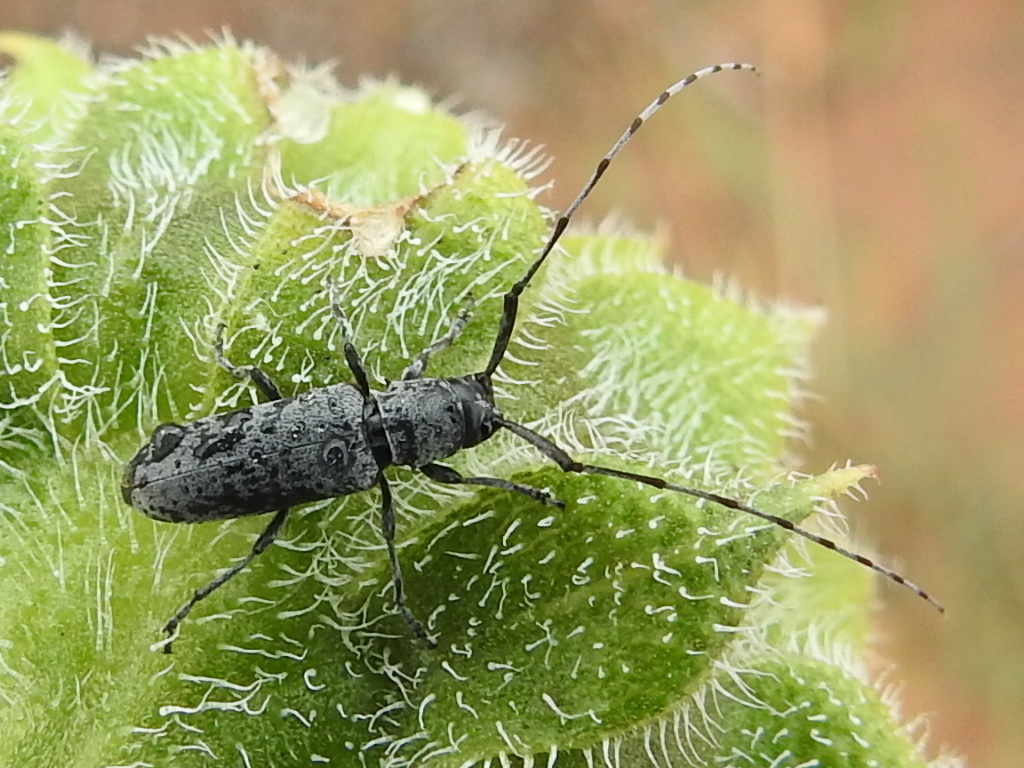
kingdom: Animalia
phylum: Arthropoda
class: Insecta
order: Coleoptera
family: Cerambycidae
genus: Dectes
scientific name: Dectes texanus
